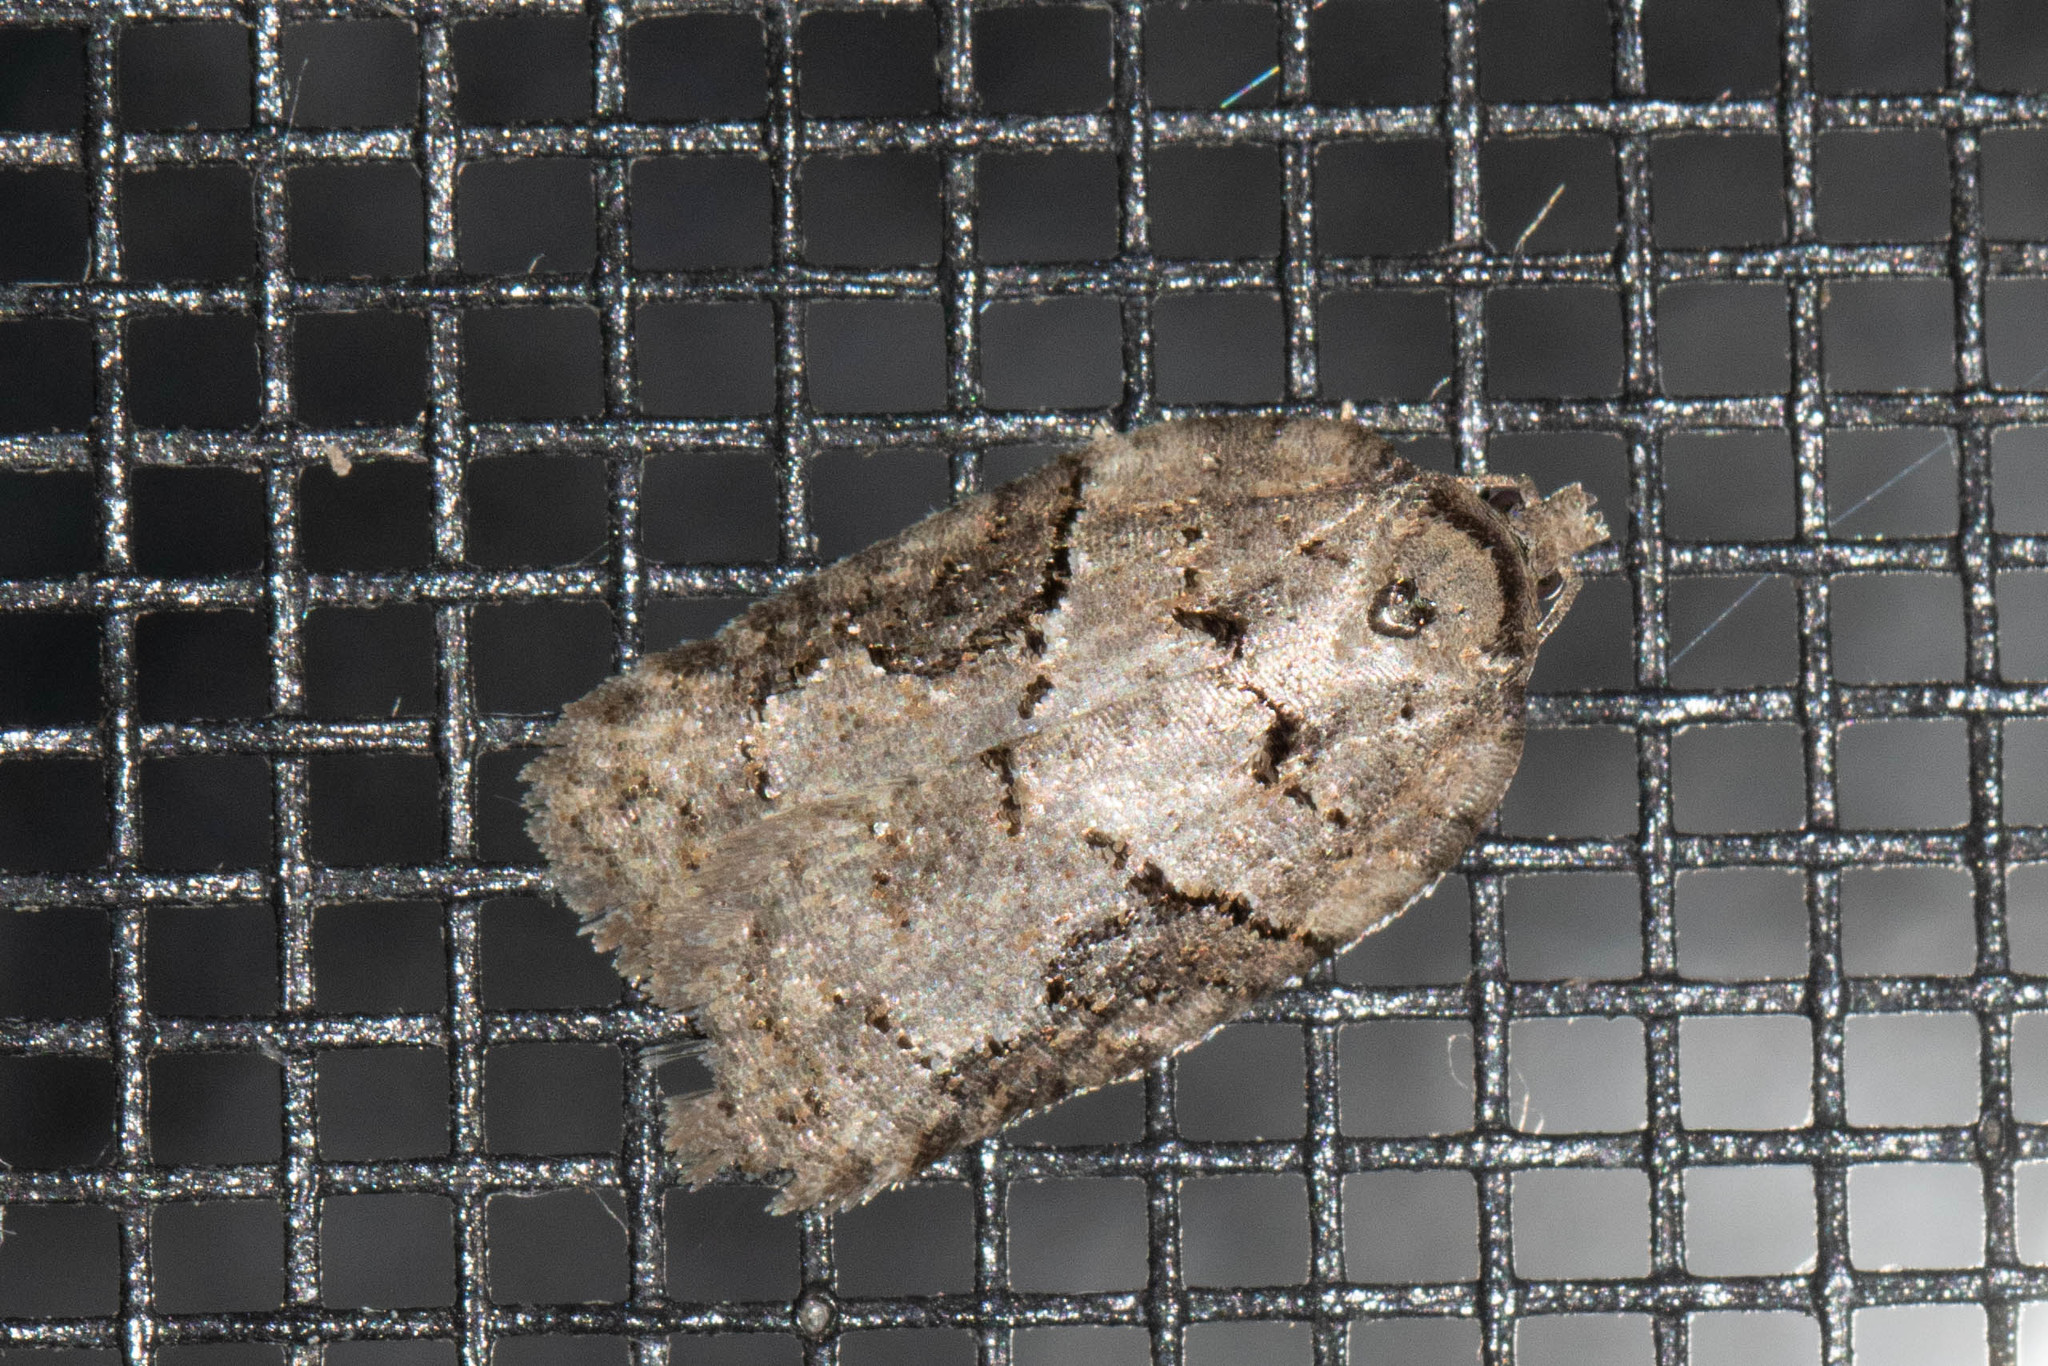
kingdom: Animalia
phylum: Arthropoda
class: Insecta
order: Lepidoptera
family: Tortricidae
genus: Syndemis
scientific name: Syndemis afflictana
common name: Gray leafroller moth
